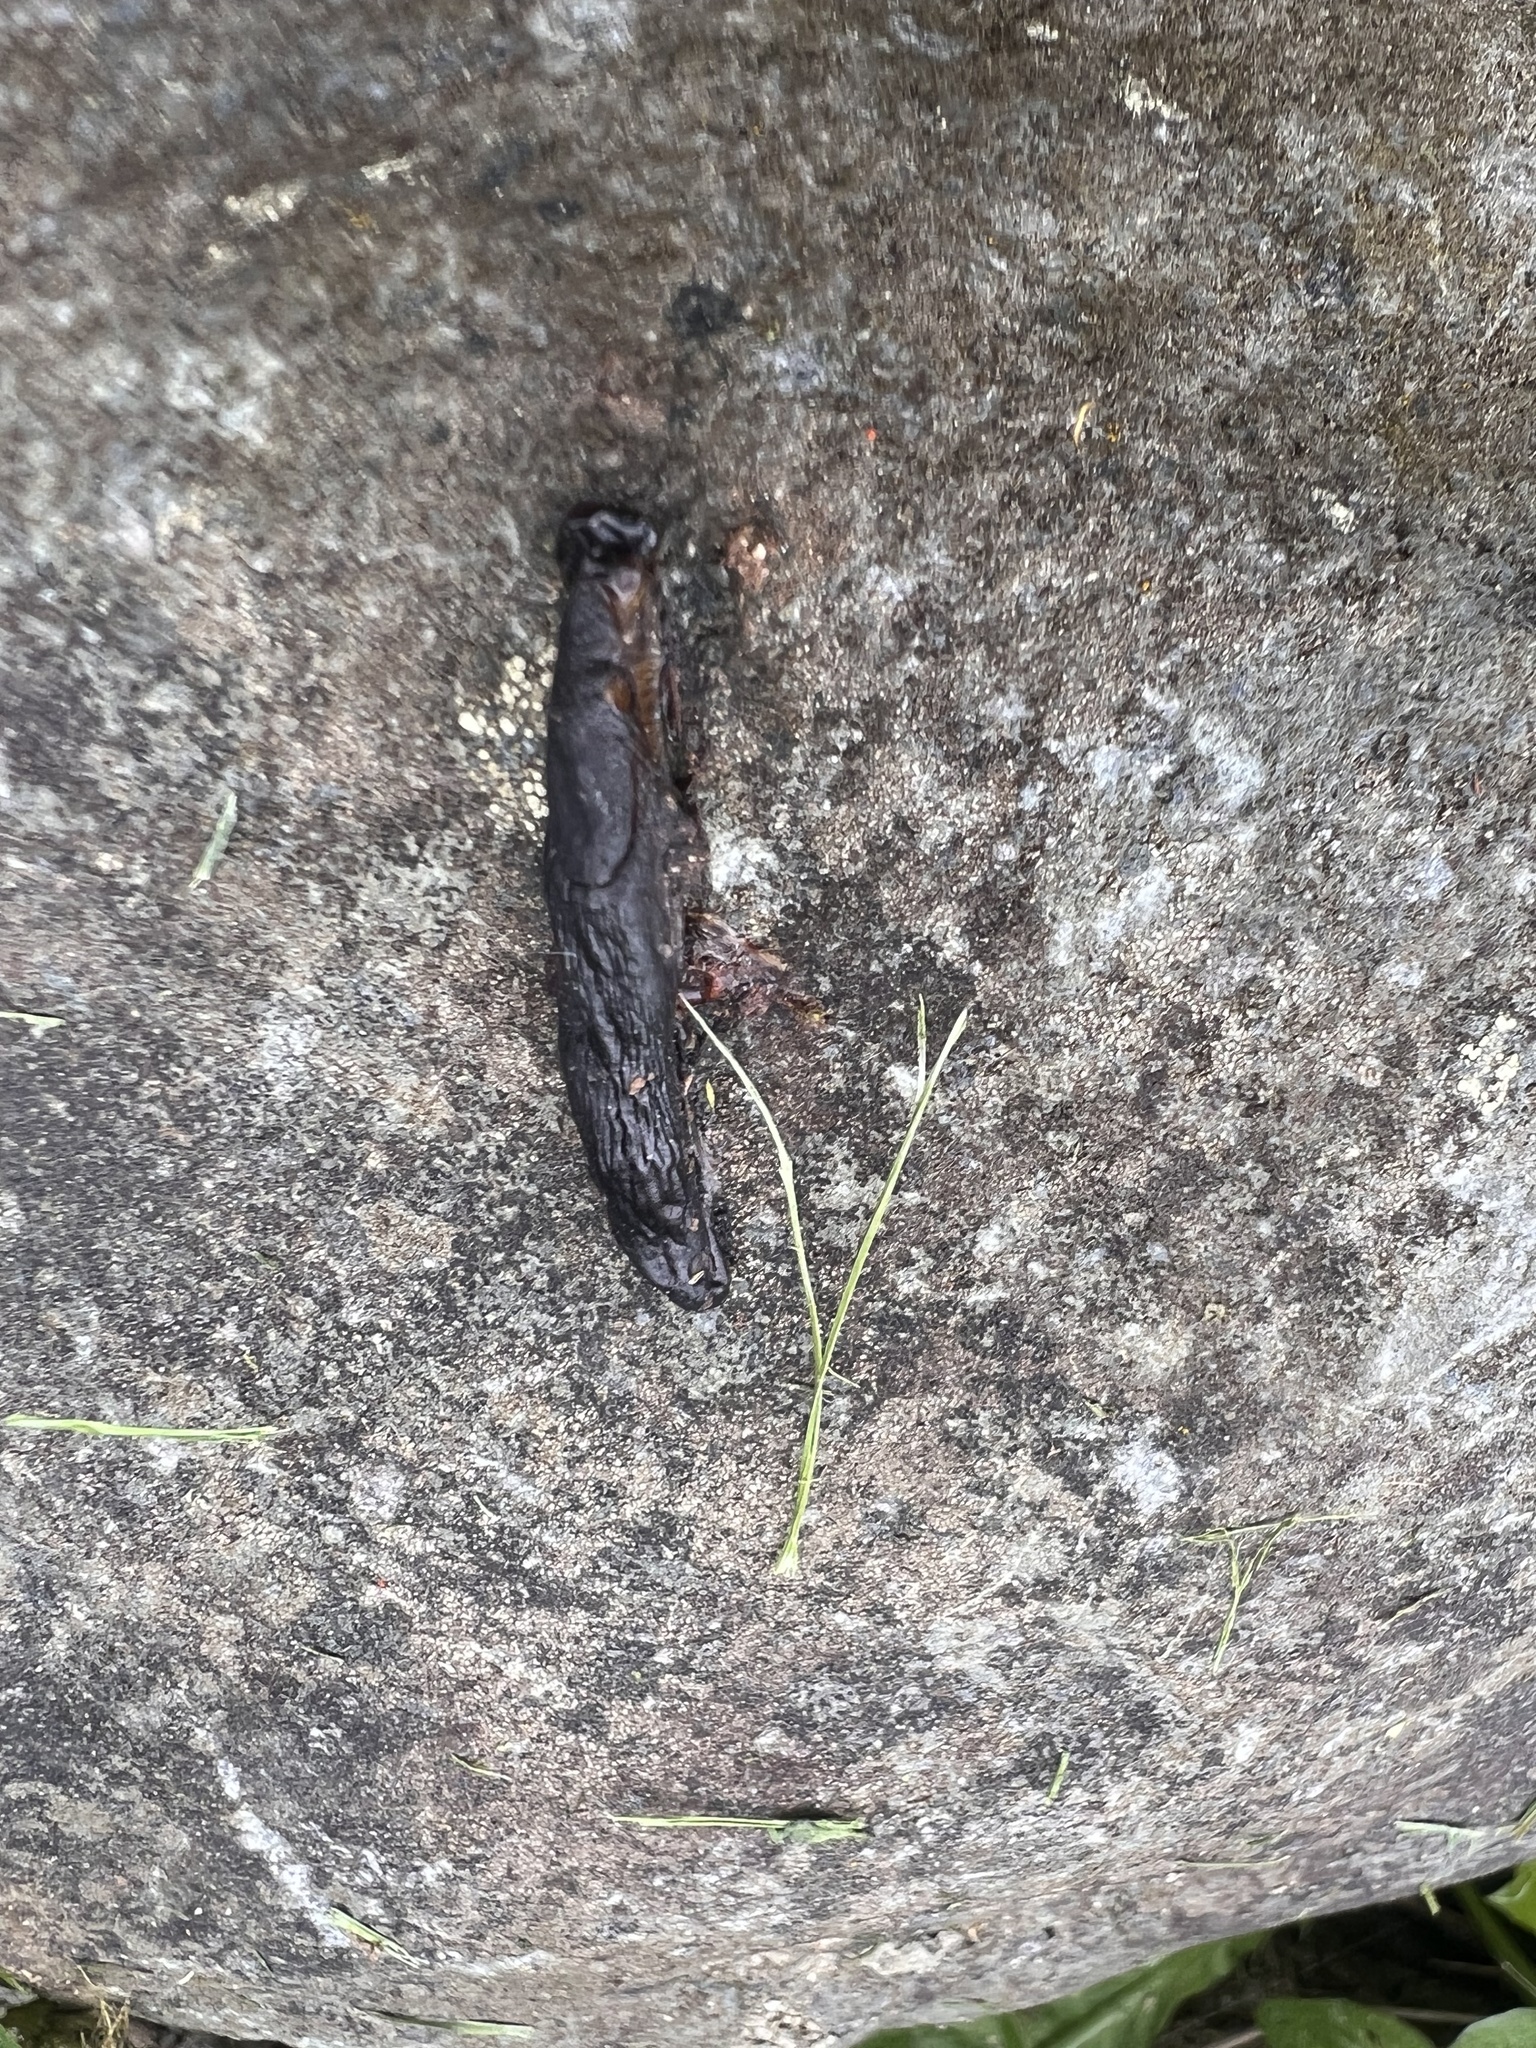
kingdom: Animalia
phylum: Mollusca
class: Gastropoda
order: Stylommatophora
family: Arionidae
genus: Arion
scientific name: Arion
